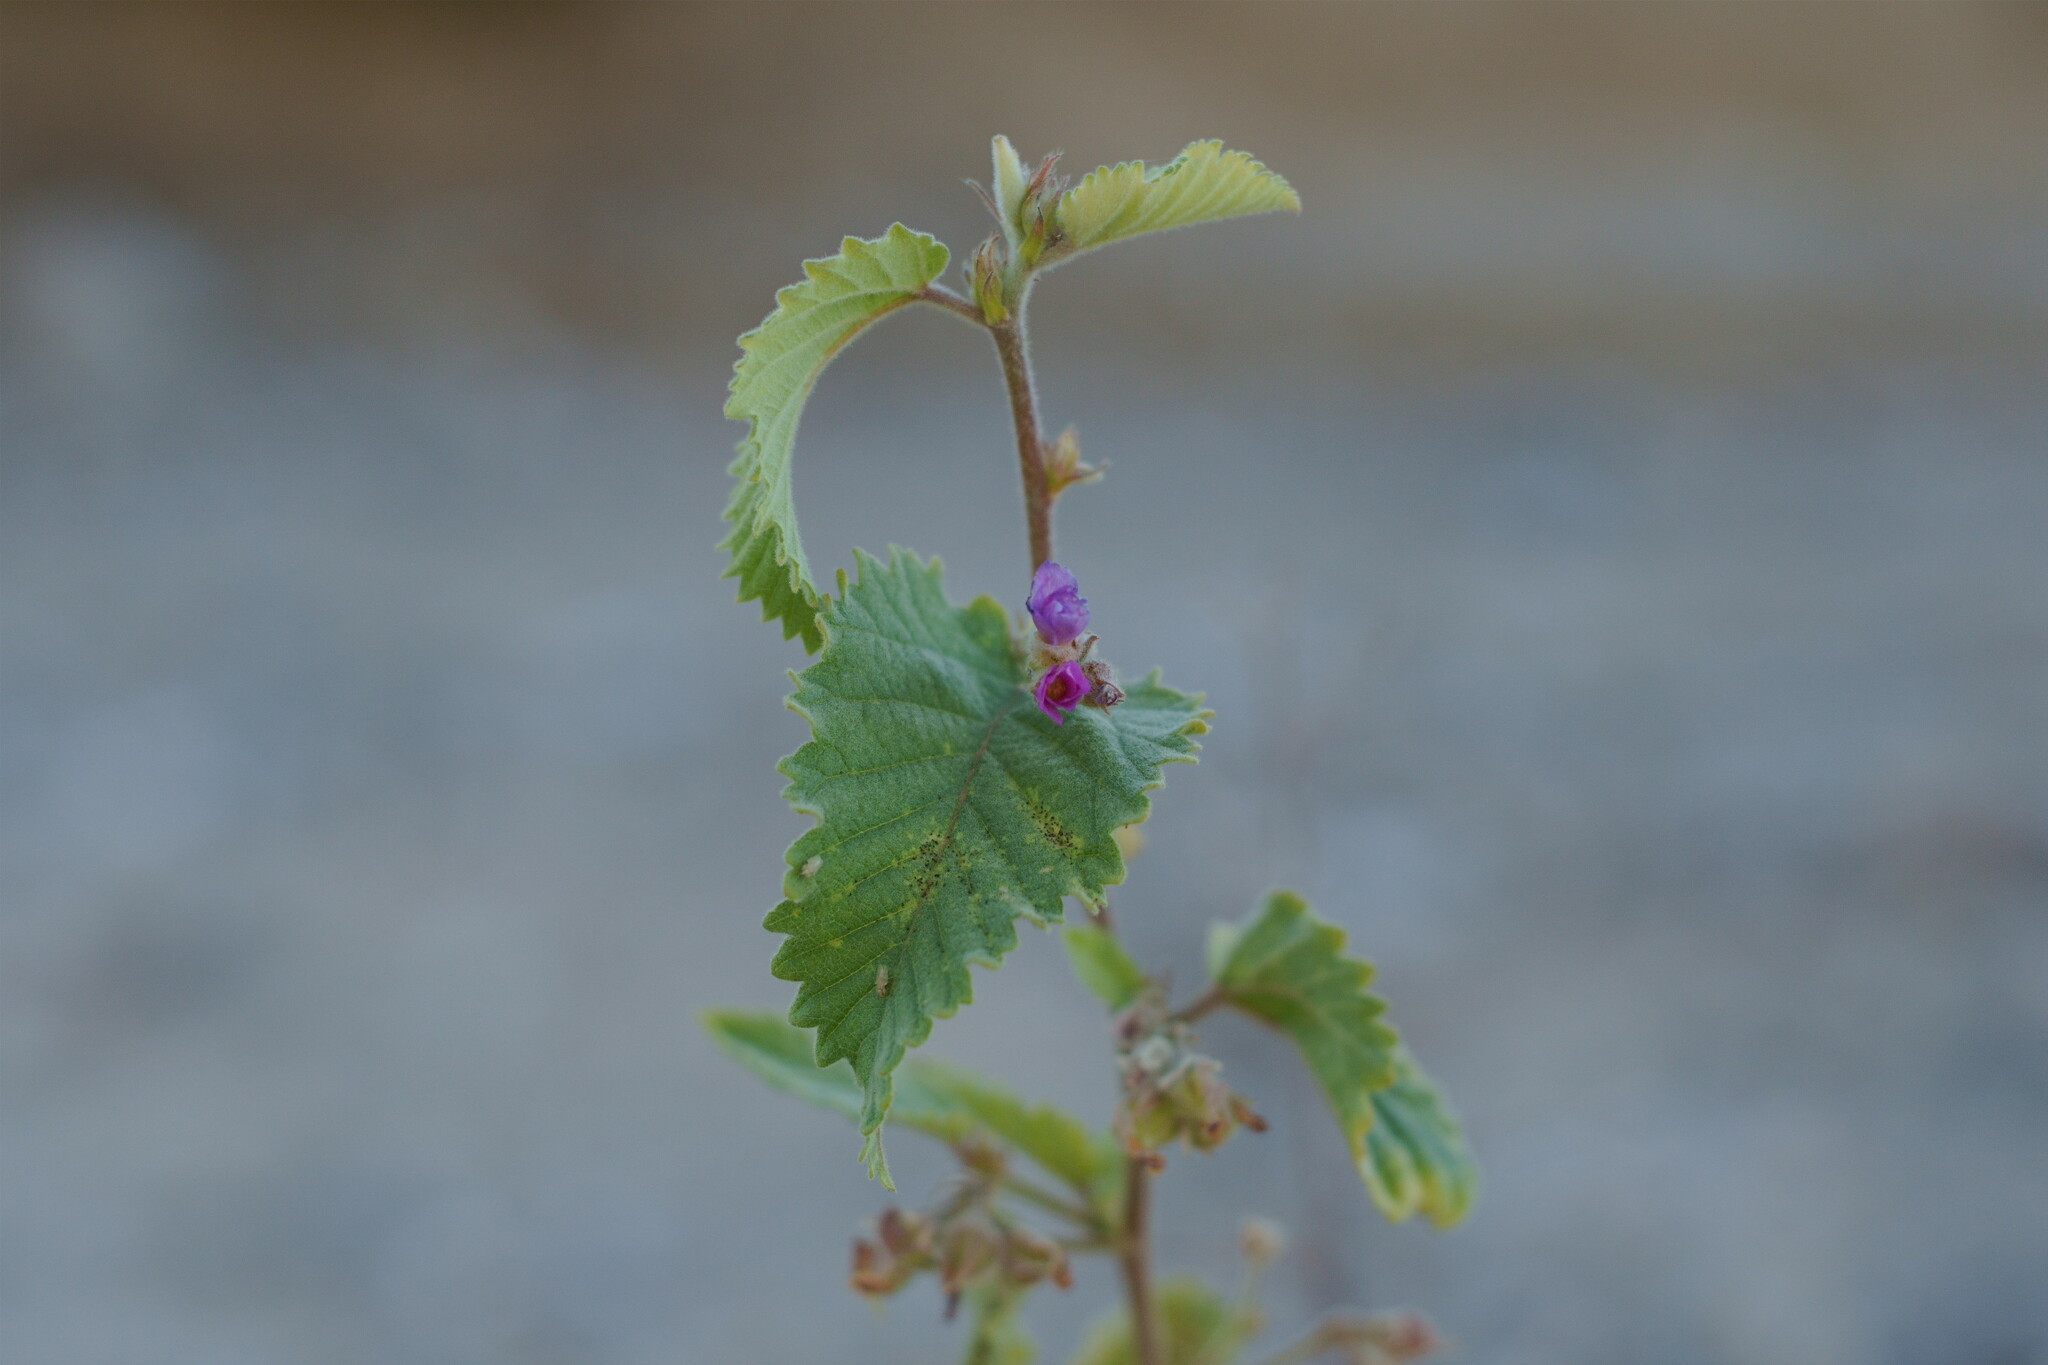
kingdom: Plantae
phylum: Tracheophyta
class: Magnoliopsida
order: Malvales
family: Malvaceae
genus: Melochia
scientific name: Melochia tomentosa
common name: Black torch
